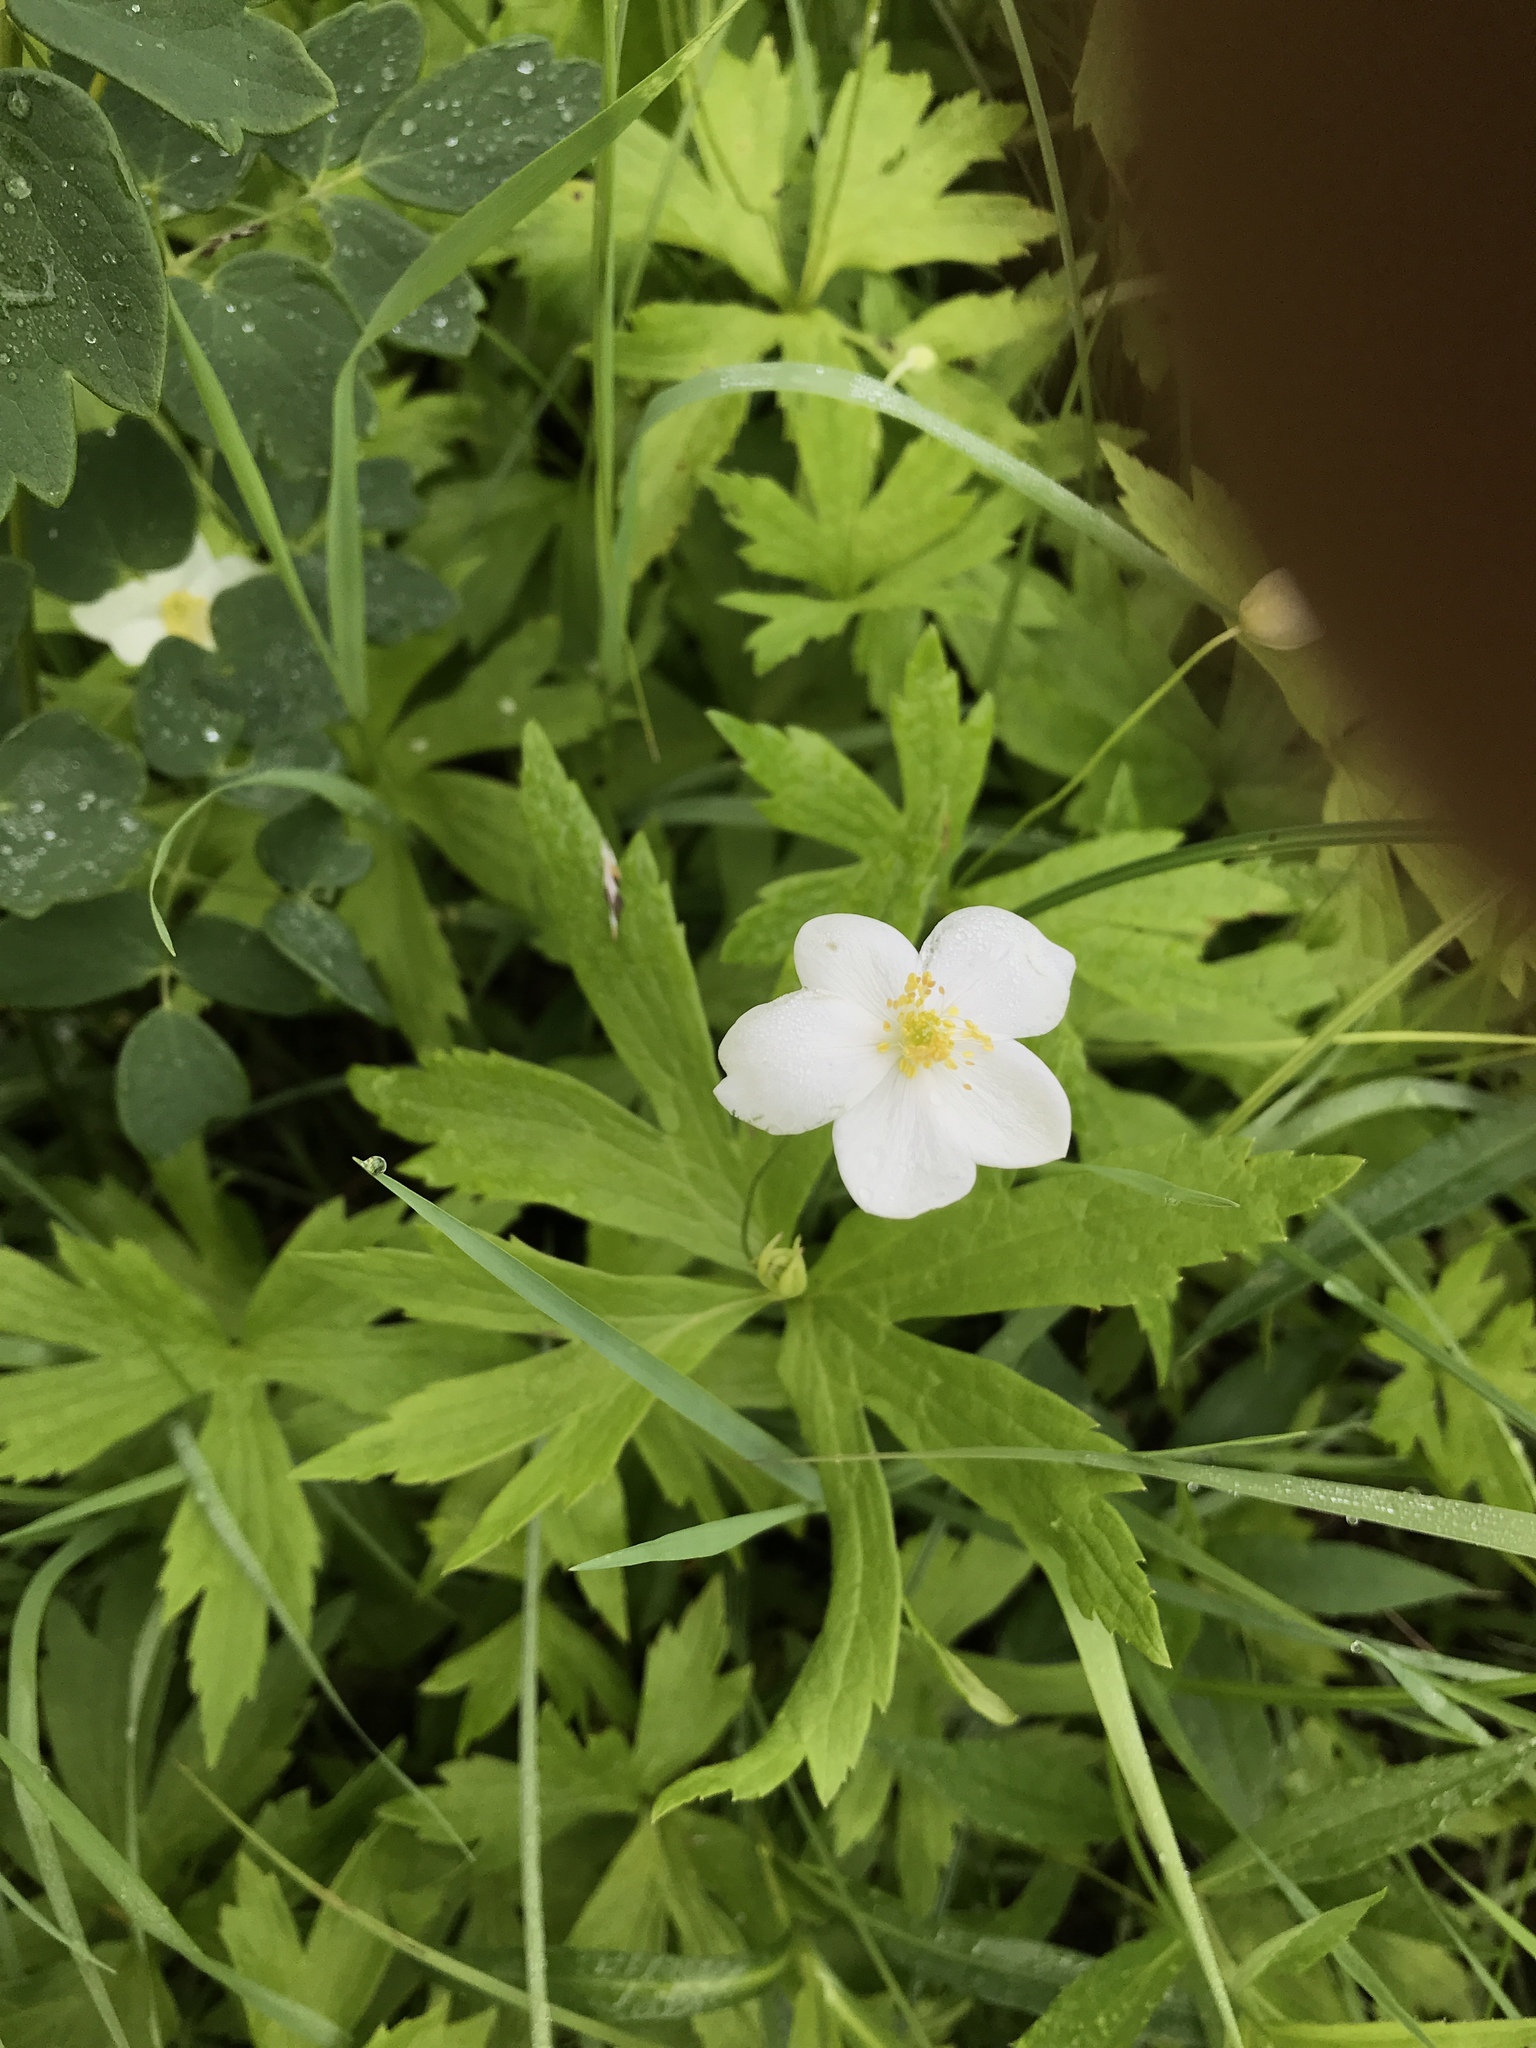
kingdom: Plantae
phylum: Tracheophyta
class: Magnoliopsida
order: Ranunculales
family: Ranunculaceae
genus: Anemonastrum
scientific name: Anemonastrum canadense
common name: Canada anemone
